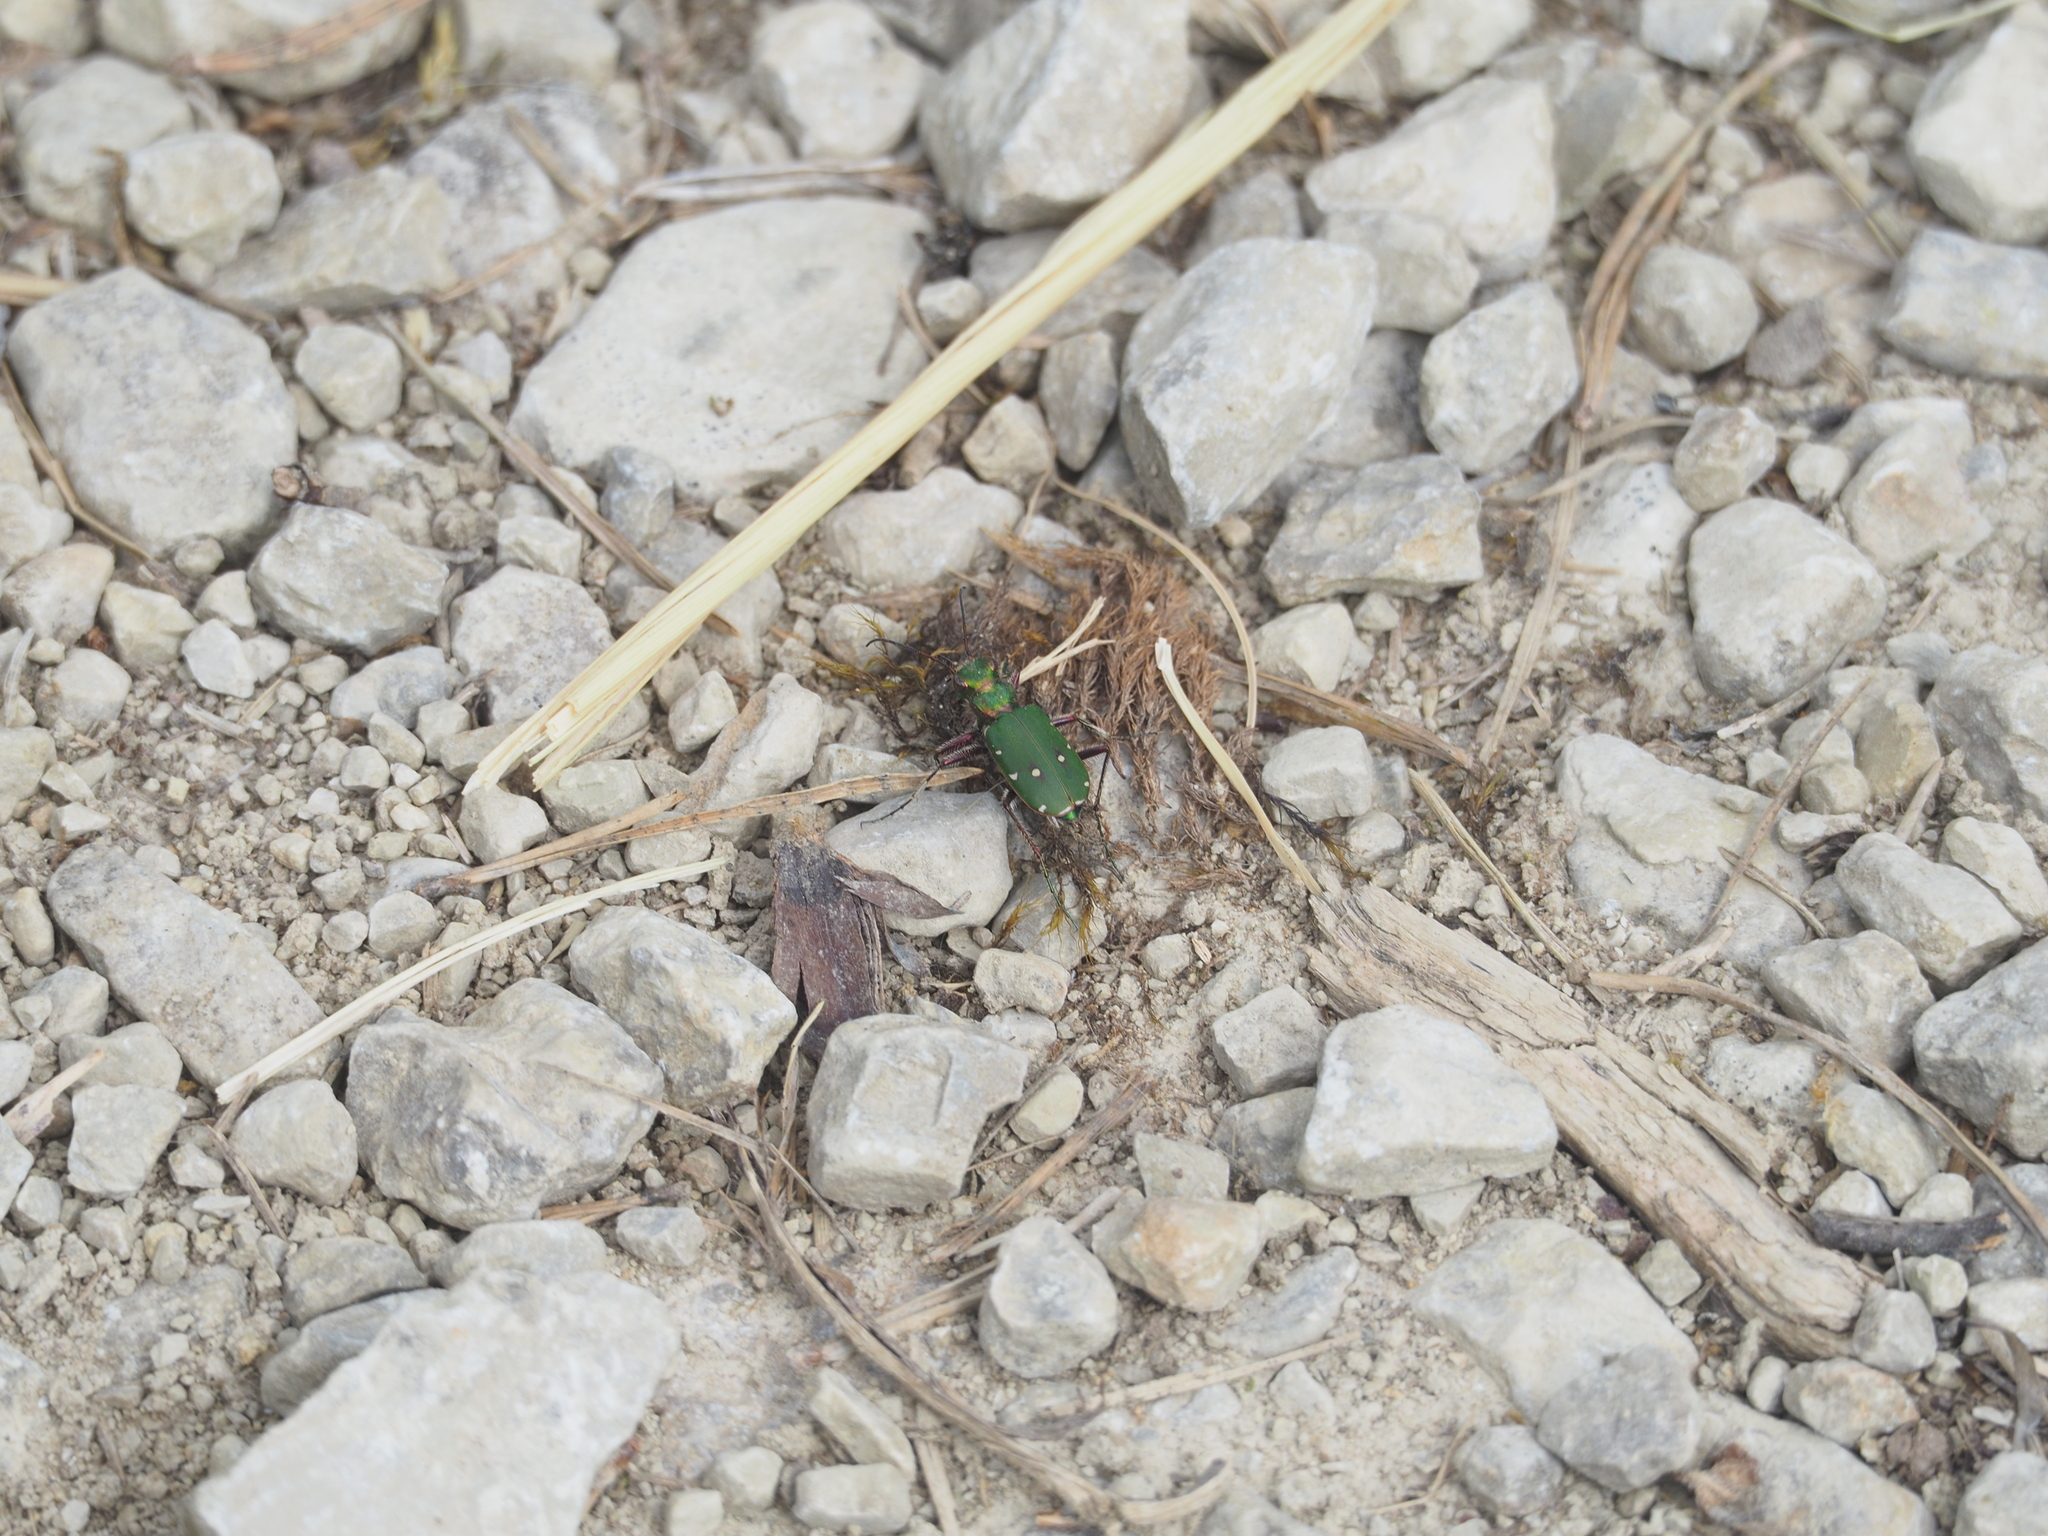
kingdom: Animalia
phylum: Arthropoda
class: Insecta
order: Coleoptera
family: Carabidae
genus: Cicindela
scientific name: Cicindela campestris
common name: Common tiger beetle
